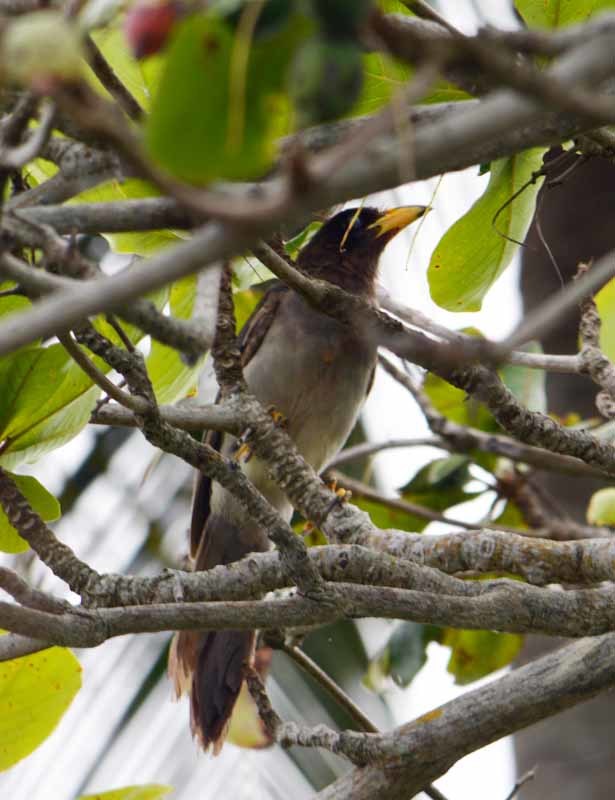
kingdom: Animalia
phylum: Chordata
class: Aves
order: Passeriformes
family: Corvidae
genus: Psilorhinus
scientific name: Psilorhinus morio
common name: Brown jay
